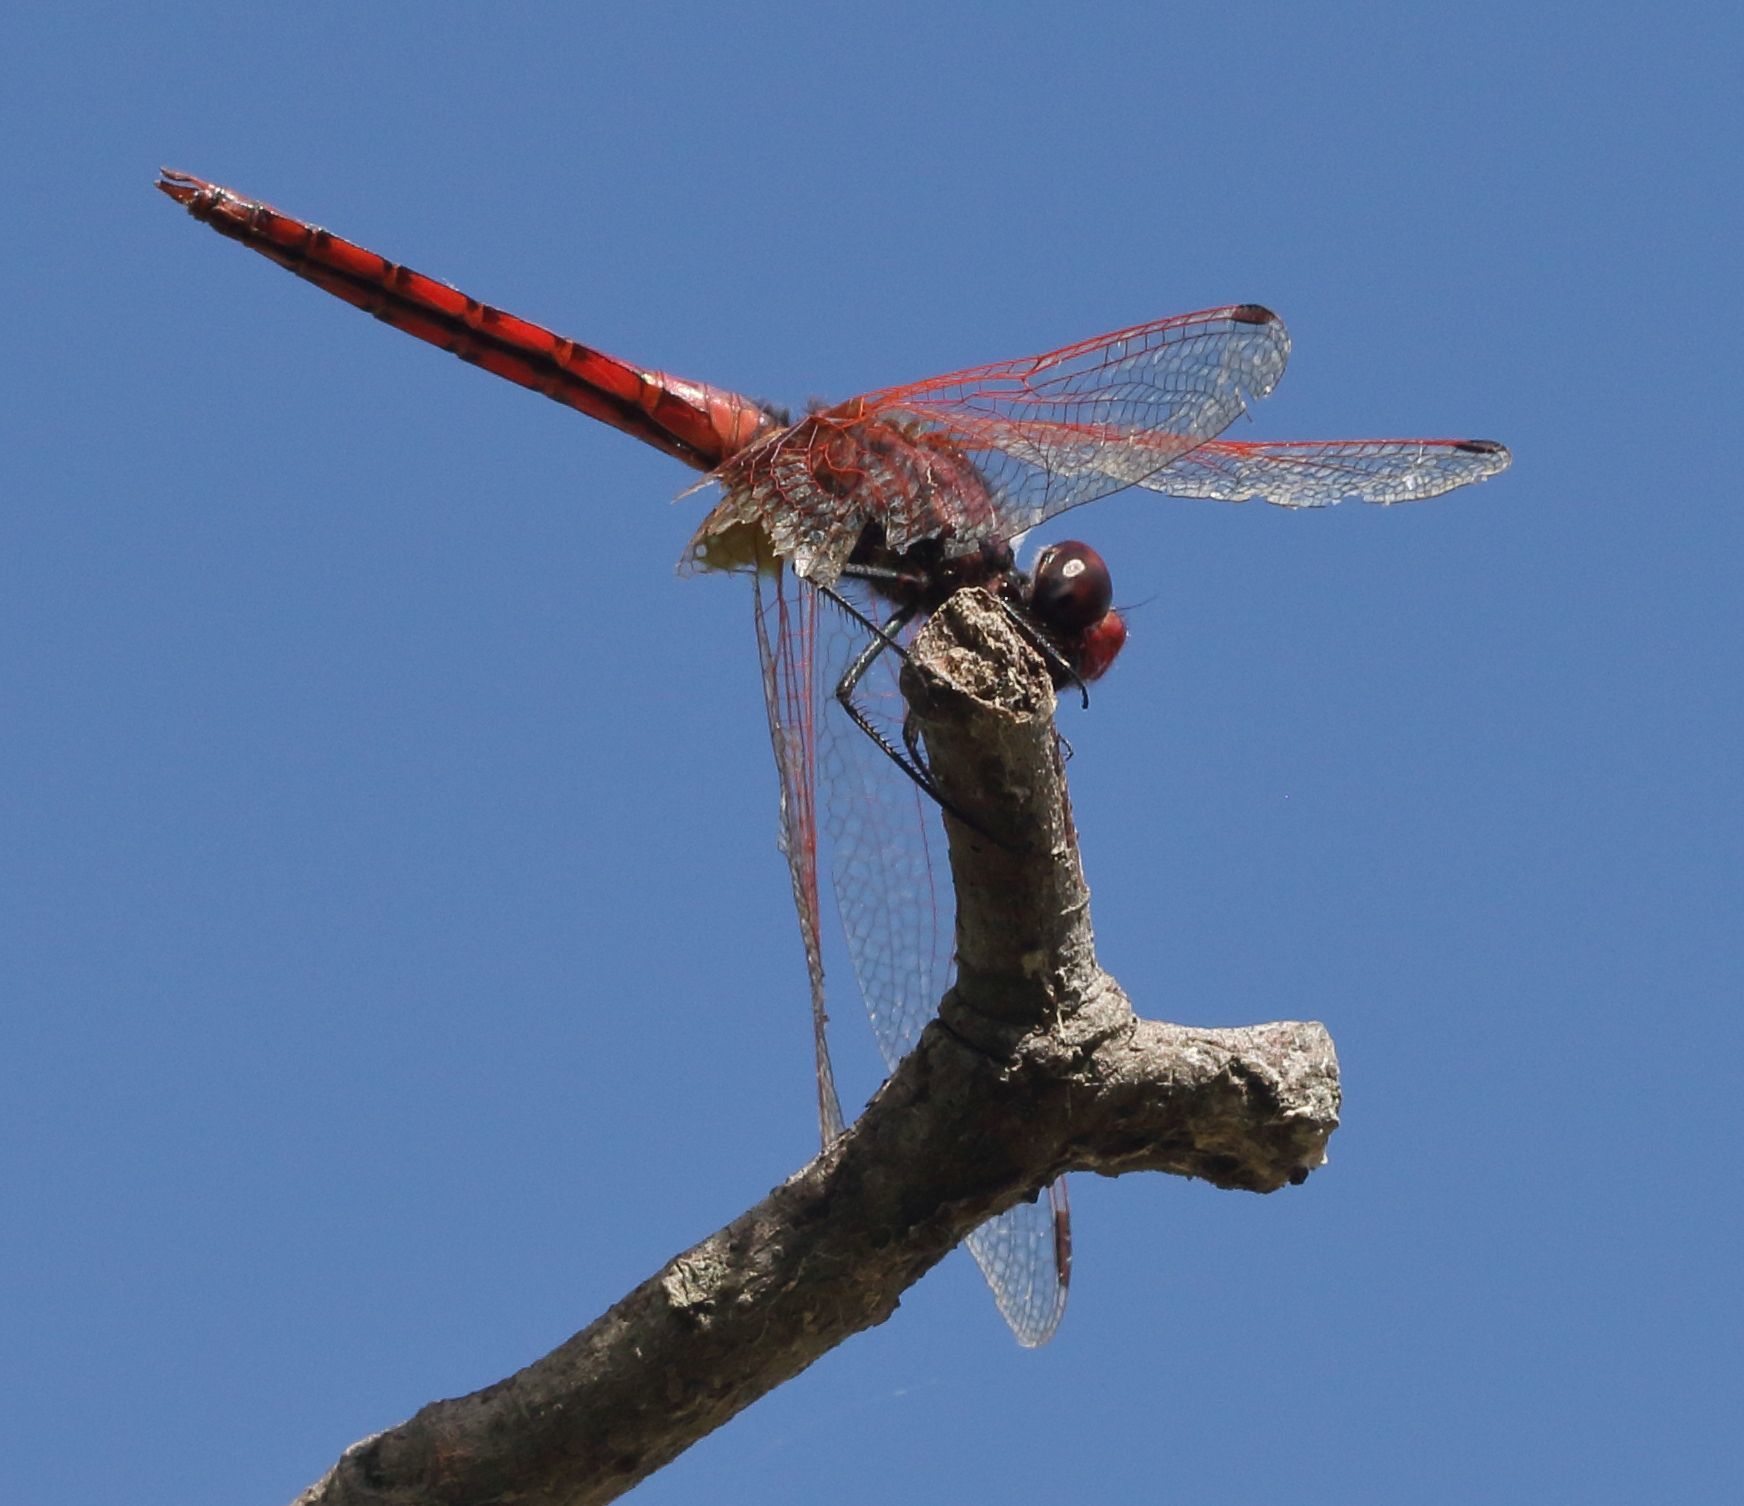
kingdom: Animalia
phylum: Arthropoda
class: Insecta
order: Odonata
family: Libellulidae
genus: Trithemis
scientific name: Trithemis annulata
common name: Violet dropwing
